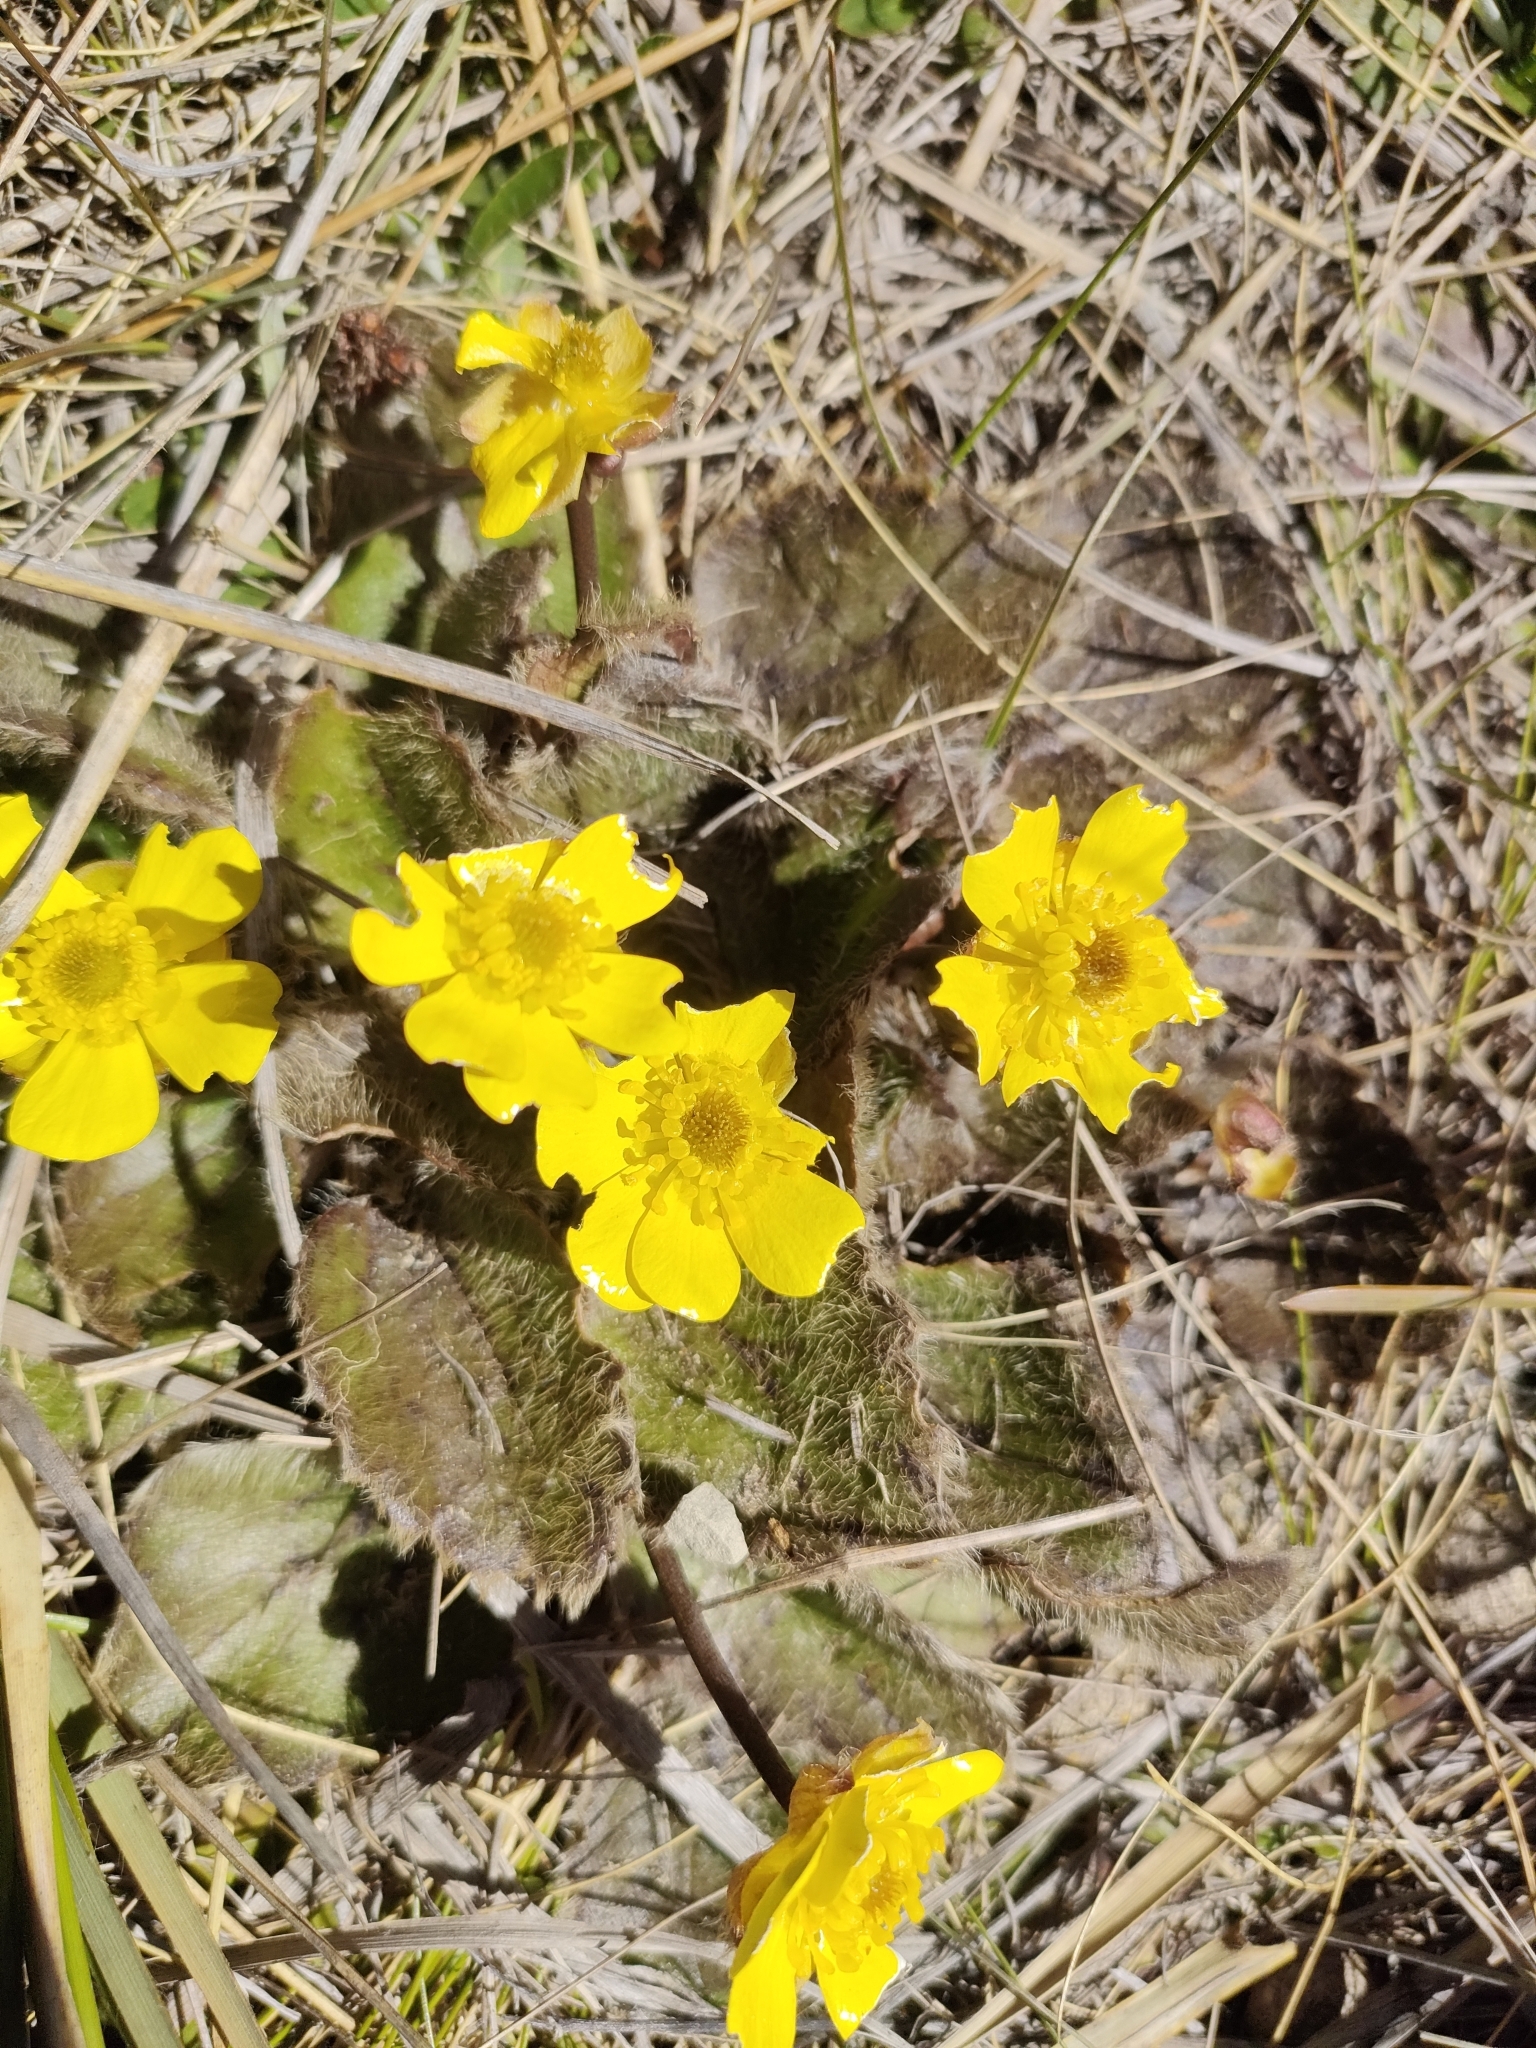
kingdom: Plantae
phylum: Tracheophyta
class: Magnoliopsida
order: Ranunculales
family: Ranunculaceae
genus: Ranunculus
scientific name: Ranunculus insignis
